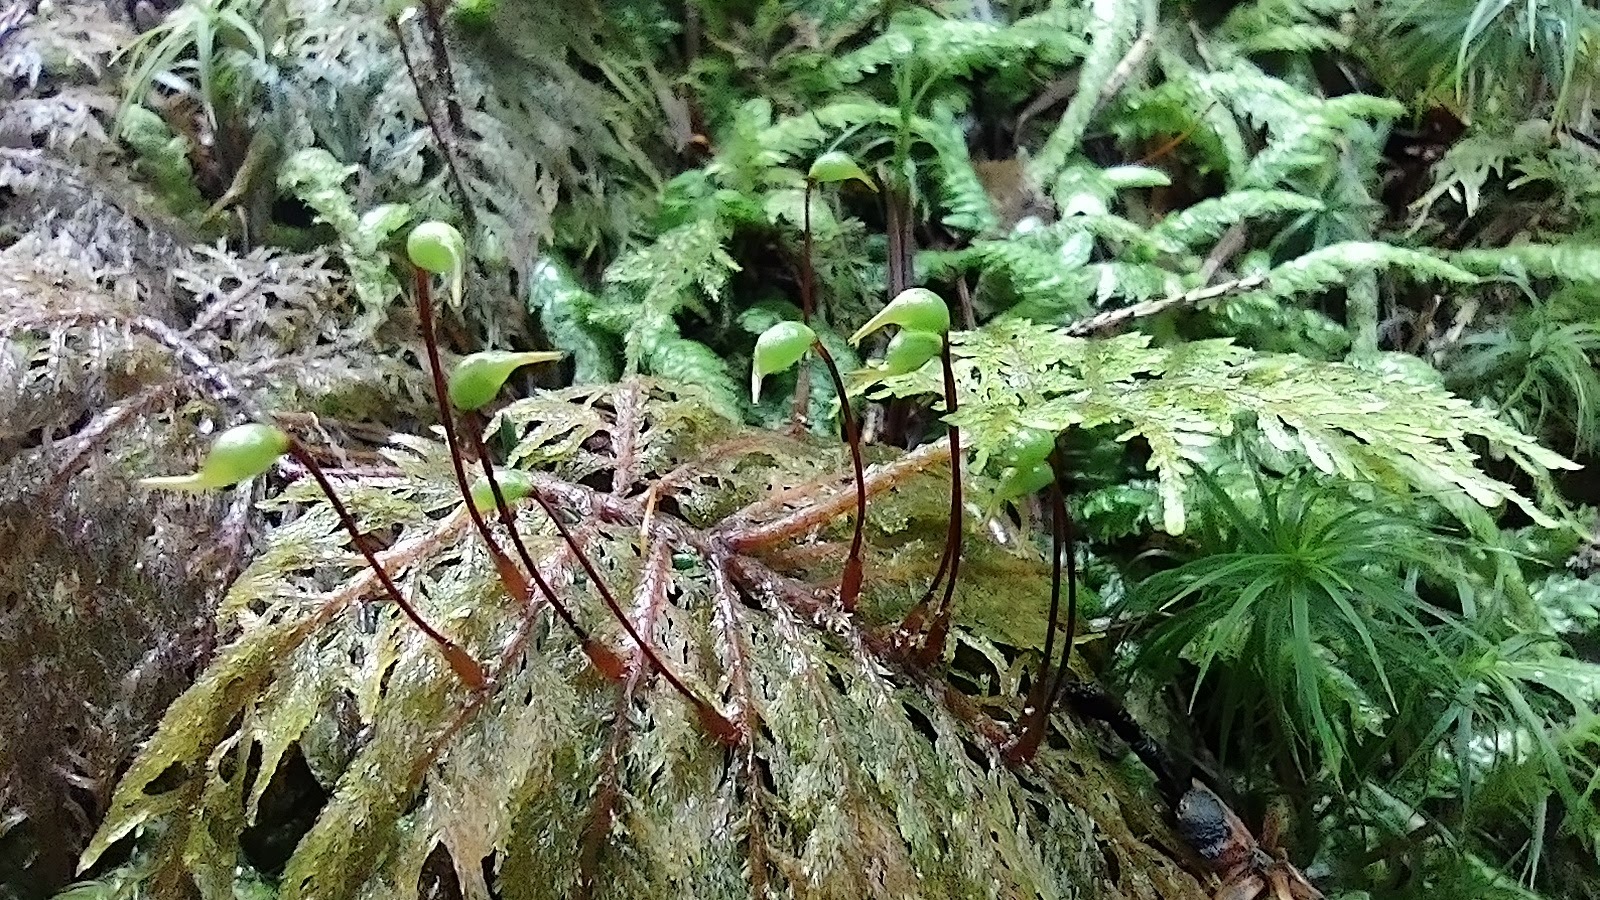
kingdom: Plantae
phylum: Bryophyta
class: Bryopsida
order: Hypnales
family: Hylocomiaceae
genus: Hylocomium
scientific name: Hylocomium splendens
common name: Stairstep moss
